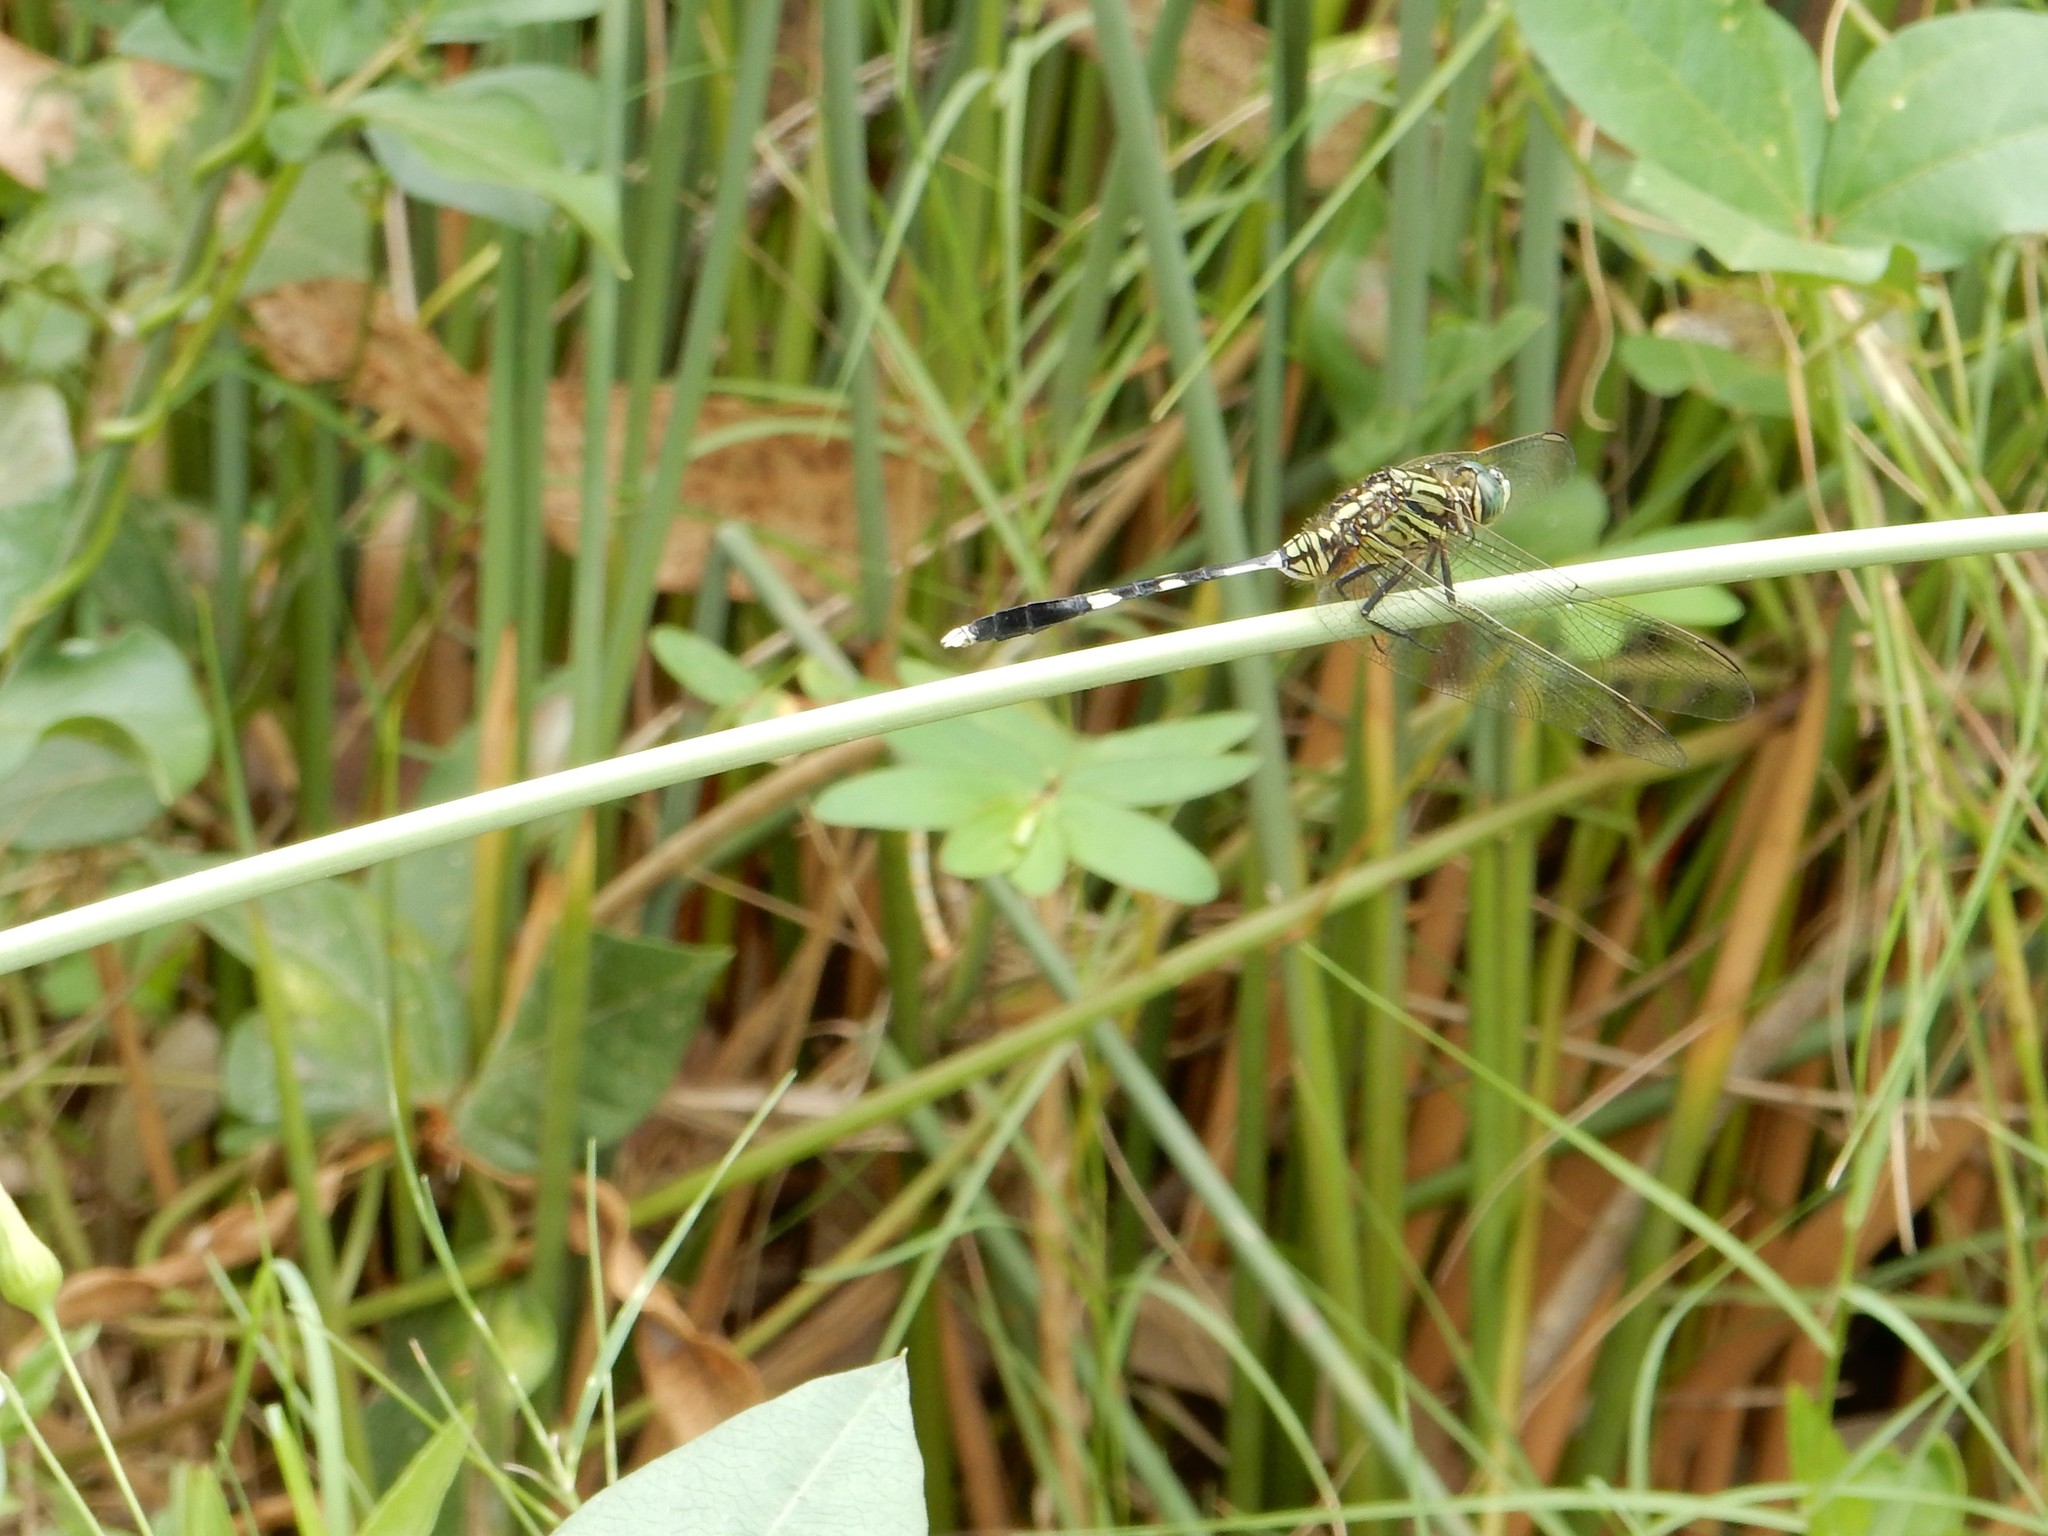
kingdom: Animalia
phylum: Arthropoda
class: Insecta
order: Odonata
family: Libellulidae
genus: Orthetrum
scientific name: Orthetrum sabina
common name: Slender skimmer
